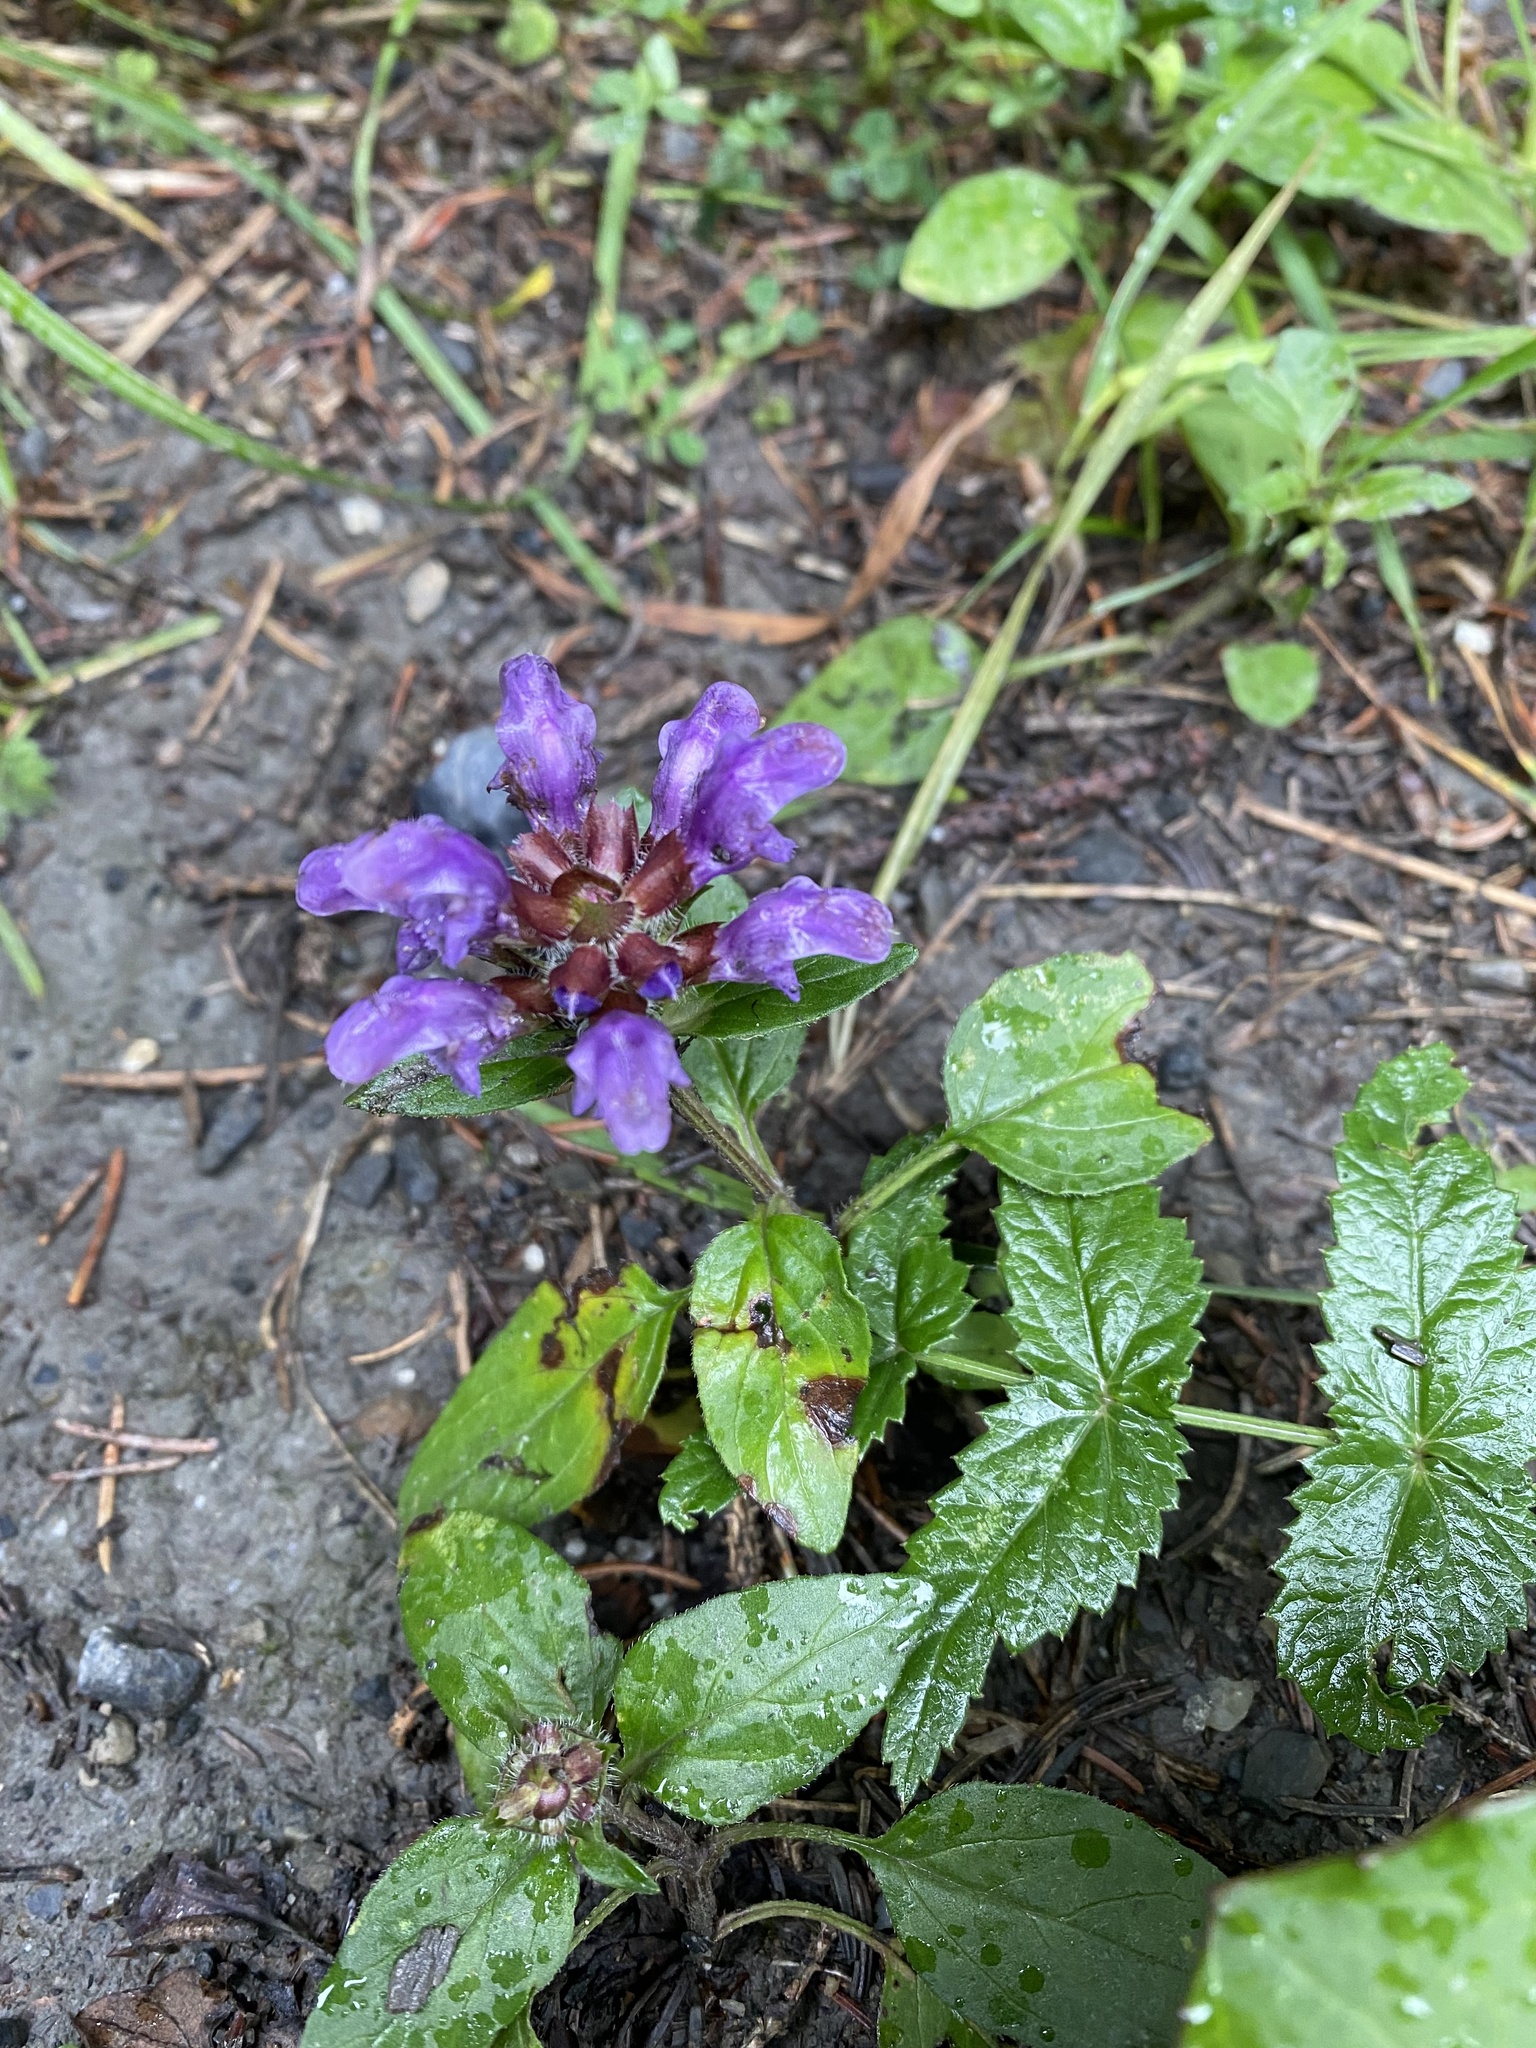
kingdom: Plantae
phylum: Tracheophyta
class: Magnoliopsida
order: Lamiales
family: Lamiaceae
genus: Prunella
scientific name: Prunella grandiflora
